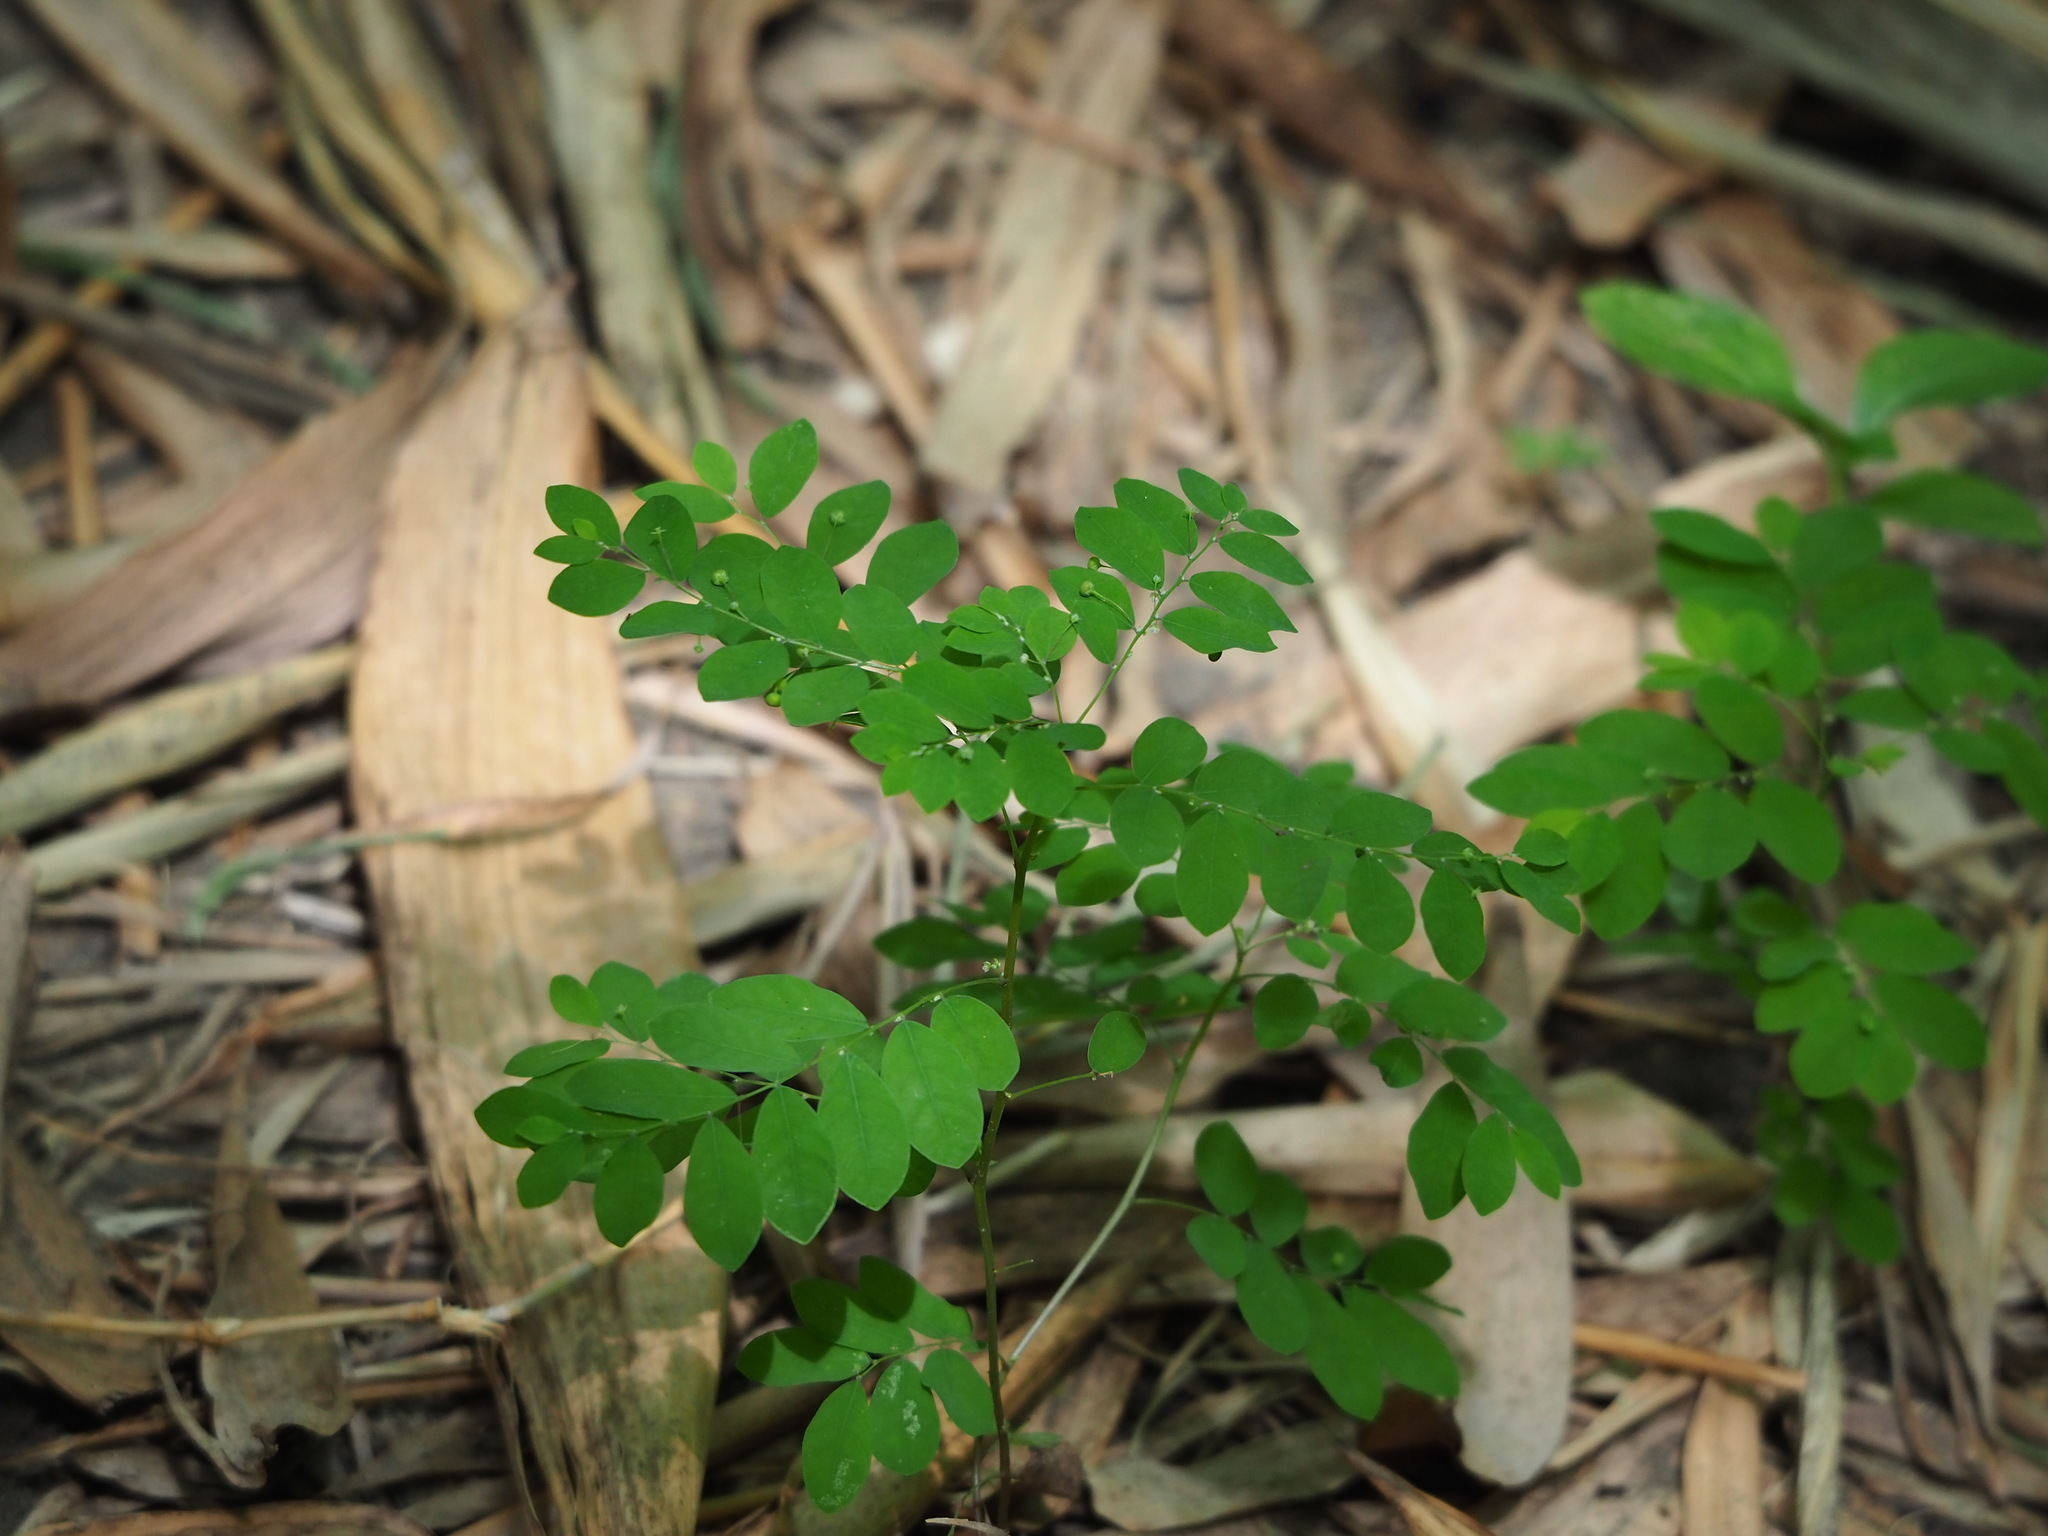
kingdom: Plantae
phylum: Tracheophyta
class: Magnoliopsida
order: Malpighiales
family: Phyllanthaceae
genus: Phyllanthus
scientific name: Phyllanthus tenellus
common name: Mascarene island leaf-flower
